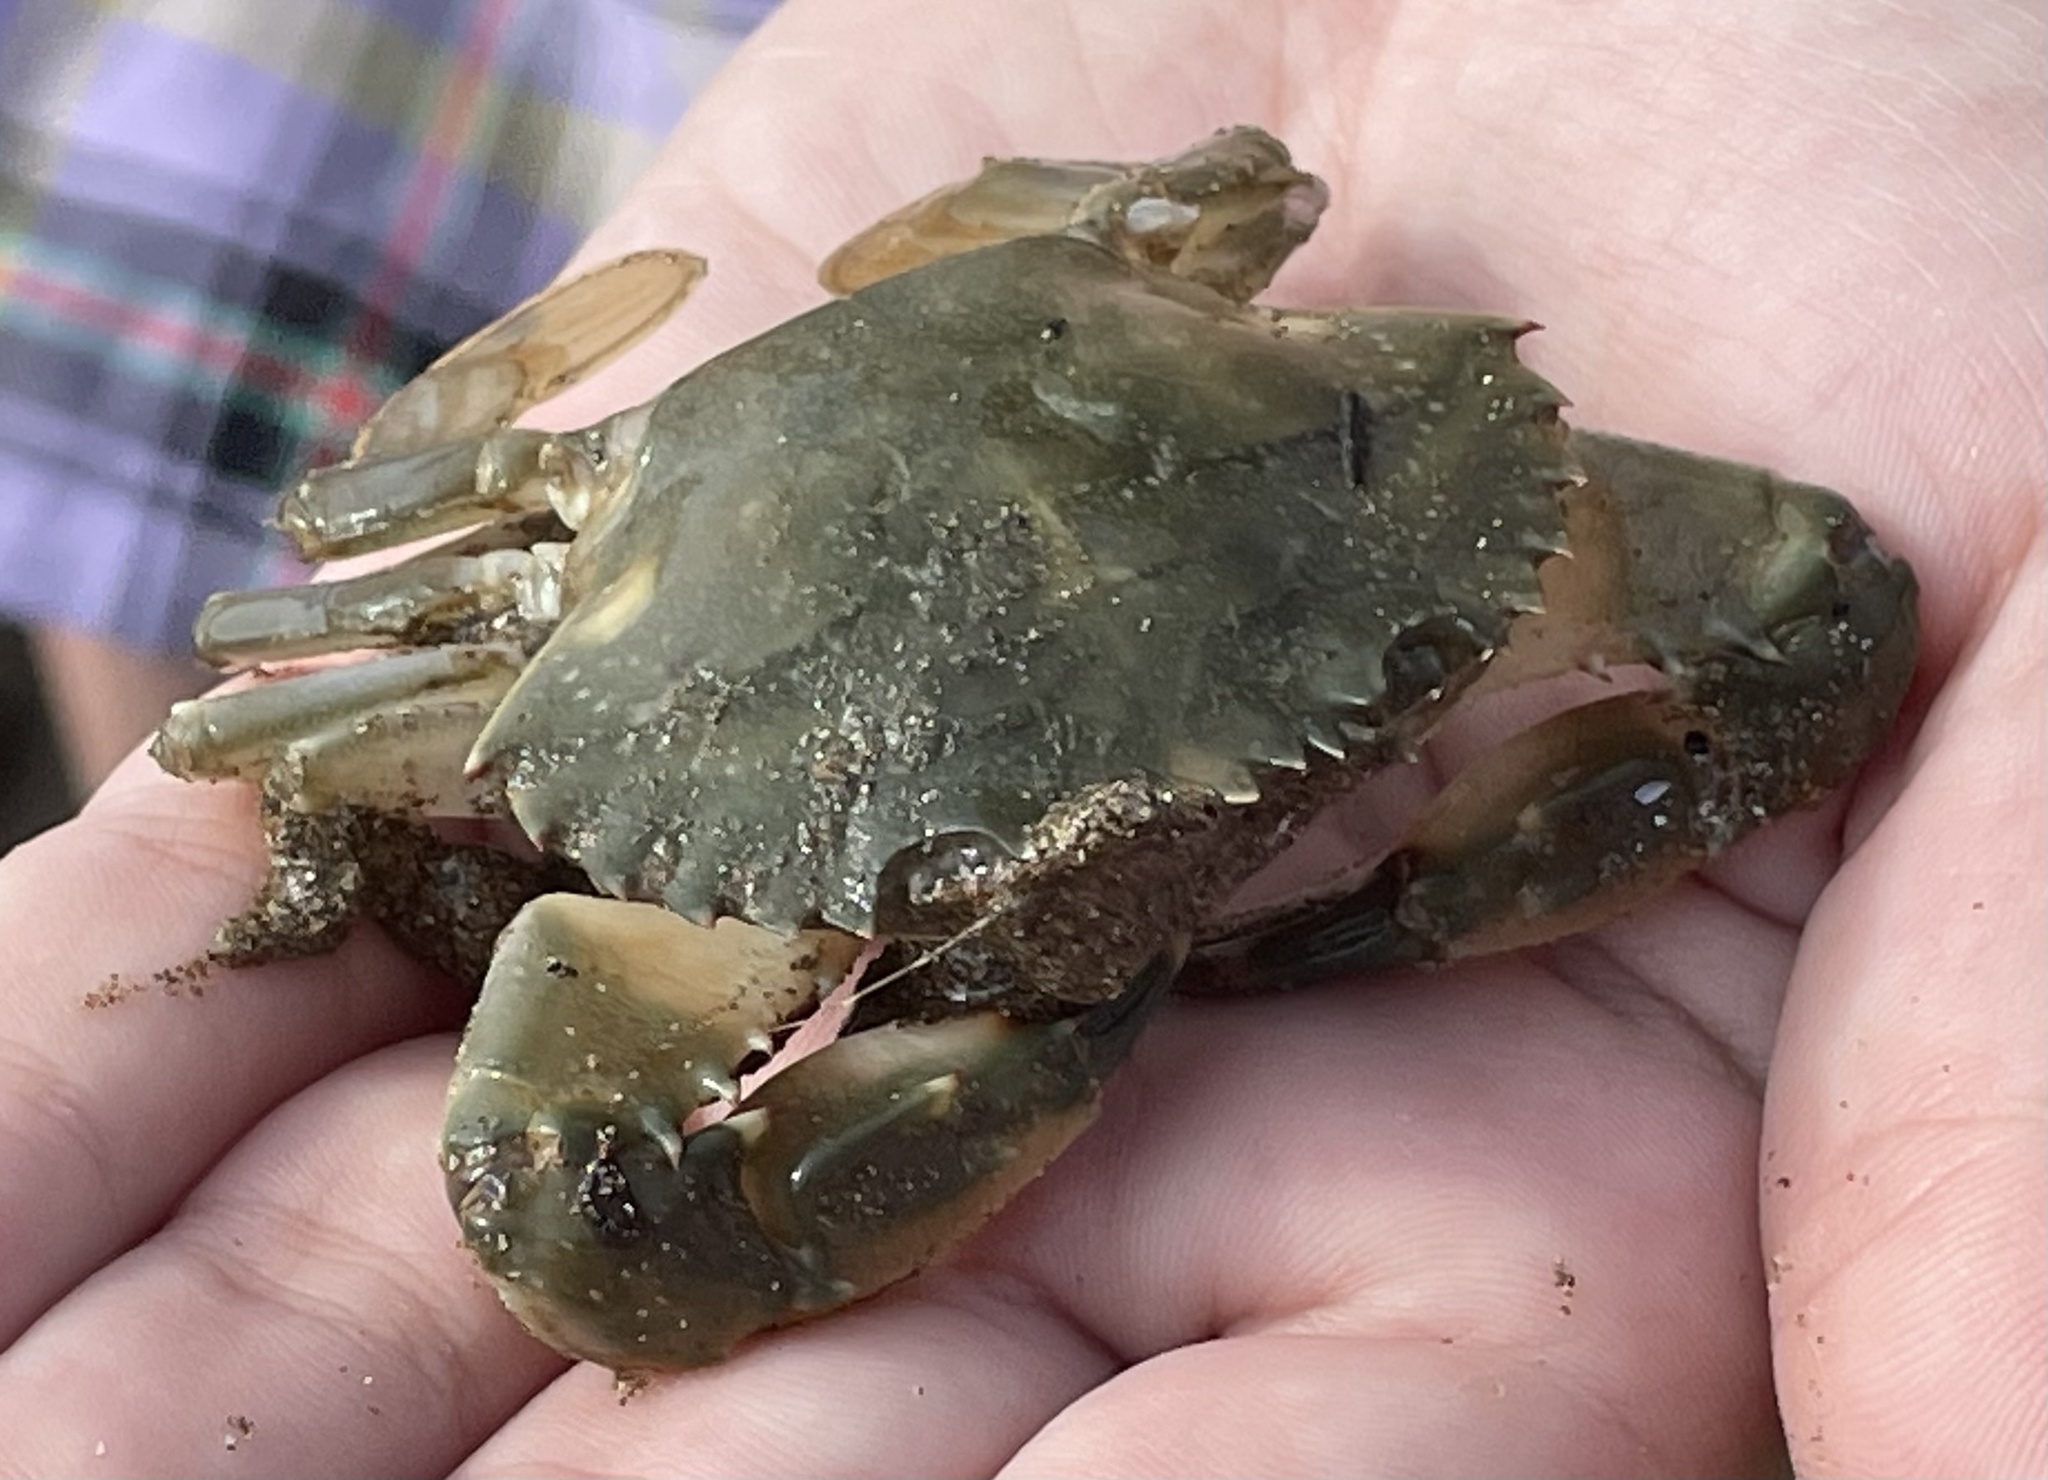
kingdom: Animalia
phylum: Arthropoda
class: Malacostraca
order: Decapoda
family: Portunidae
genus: Charybdis
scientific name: Charybdis japonica
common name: Asian paddle crab
